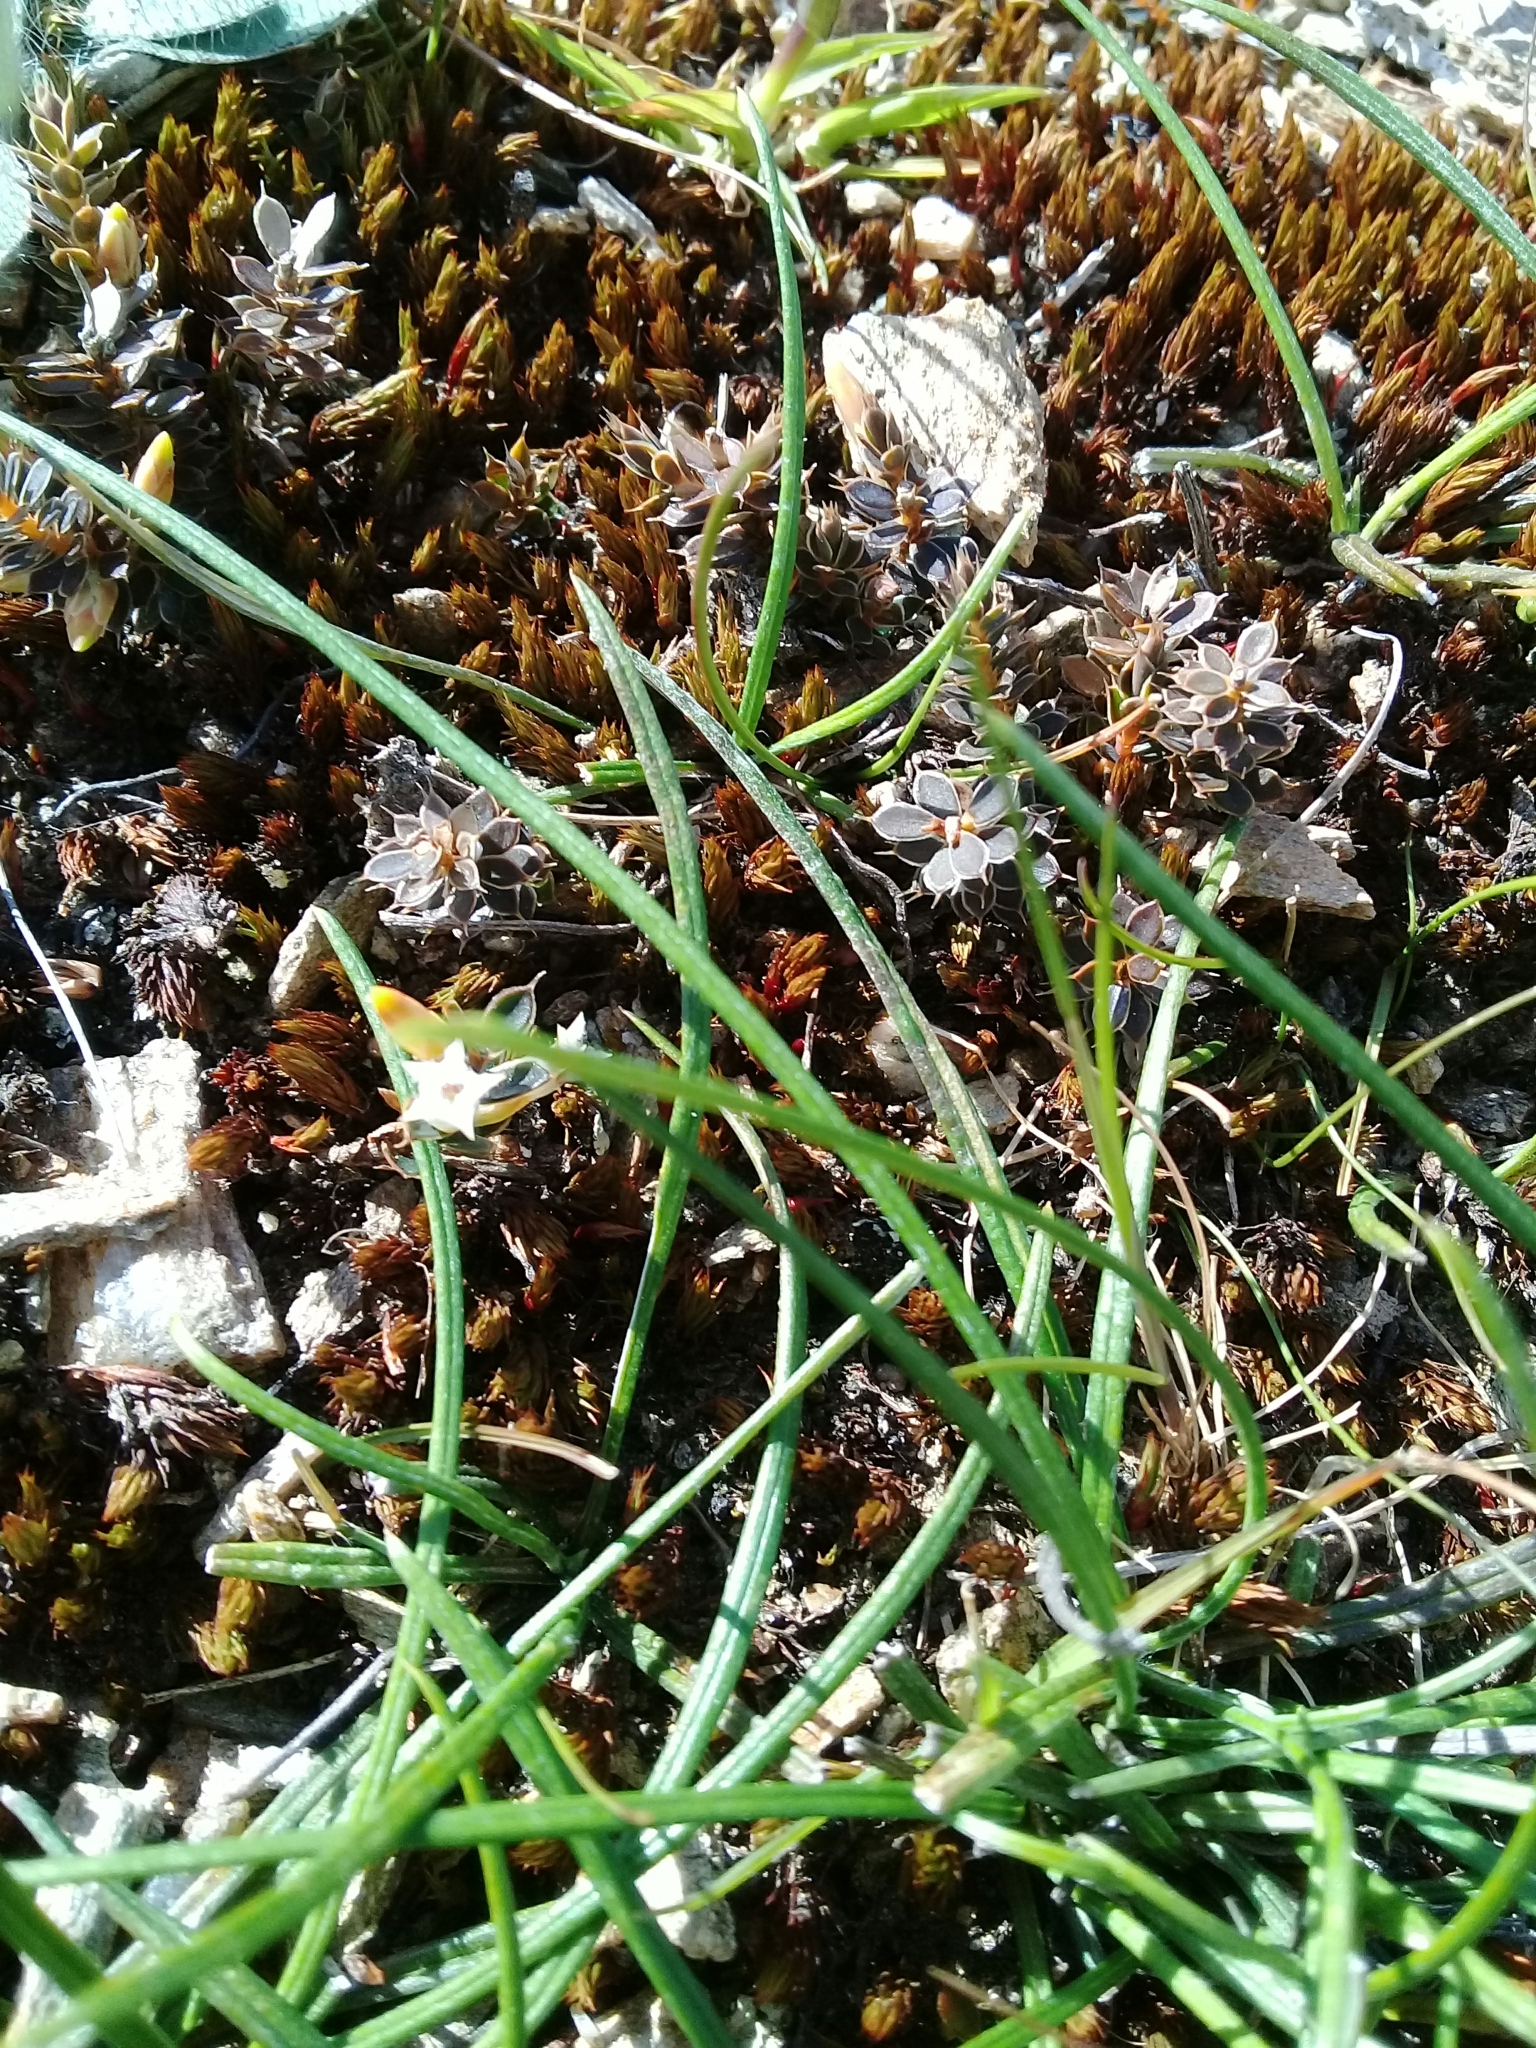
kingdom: Plantae
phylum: Tracheophyta
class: Magnoliopsida
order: Ericales
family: Ericaceae
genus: Styphelia
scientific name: Styphelia nesophila
